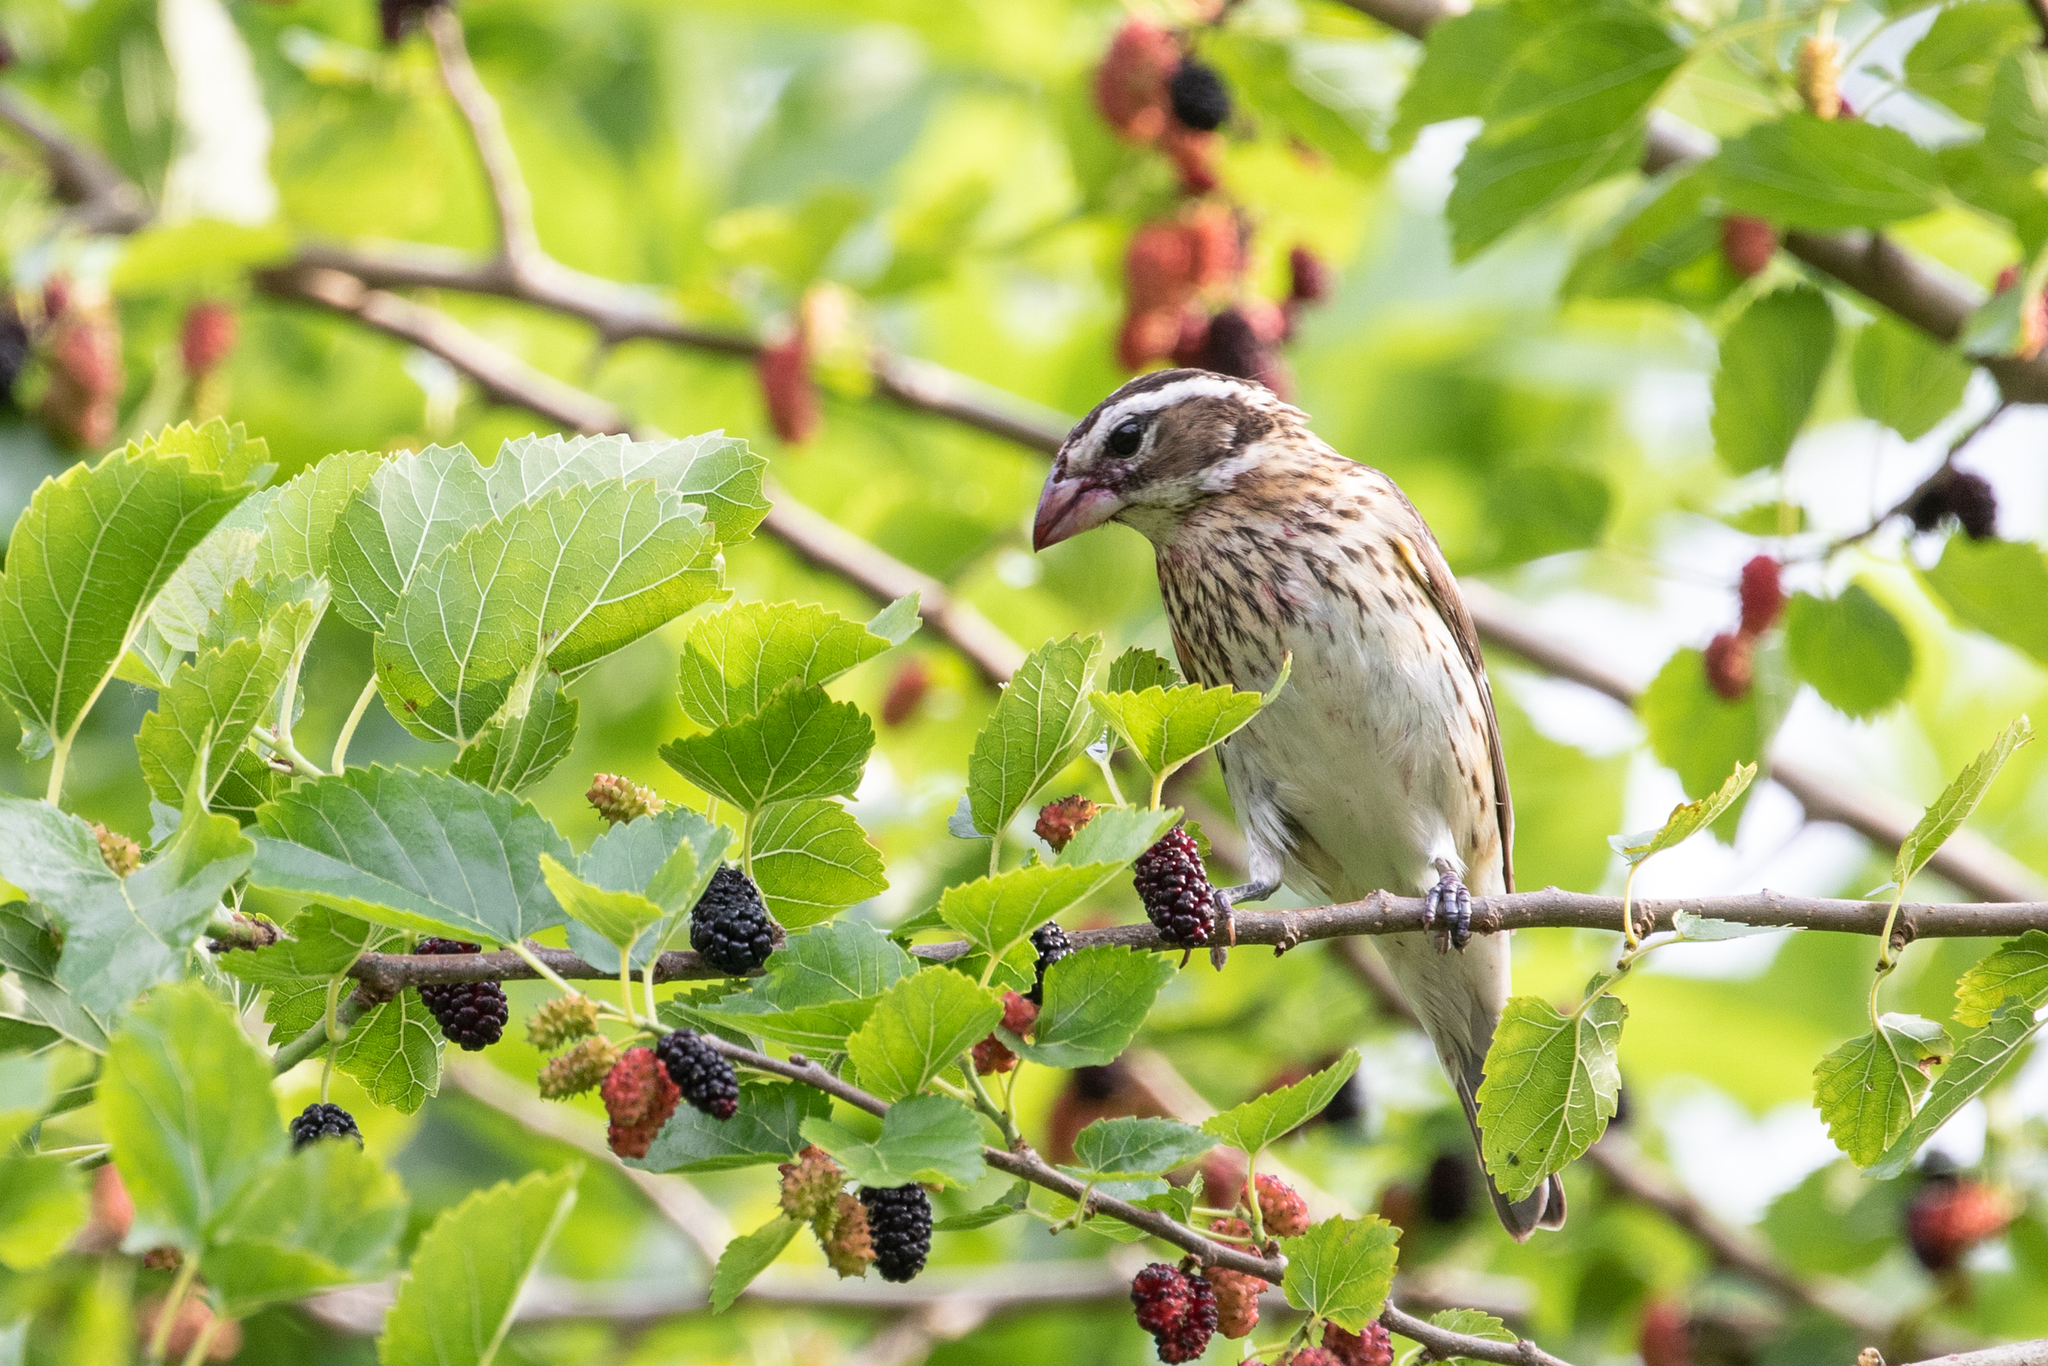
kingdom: Animalia
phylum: Chordata
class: Aves
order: Passeriformes
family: Cardinalidae
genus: Pheucticus
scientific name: Pheucticus ludovicianus
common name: Rose-breasted grosbeak
